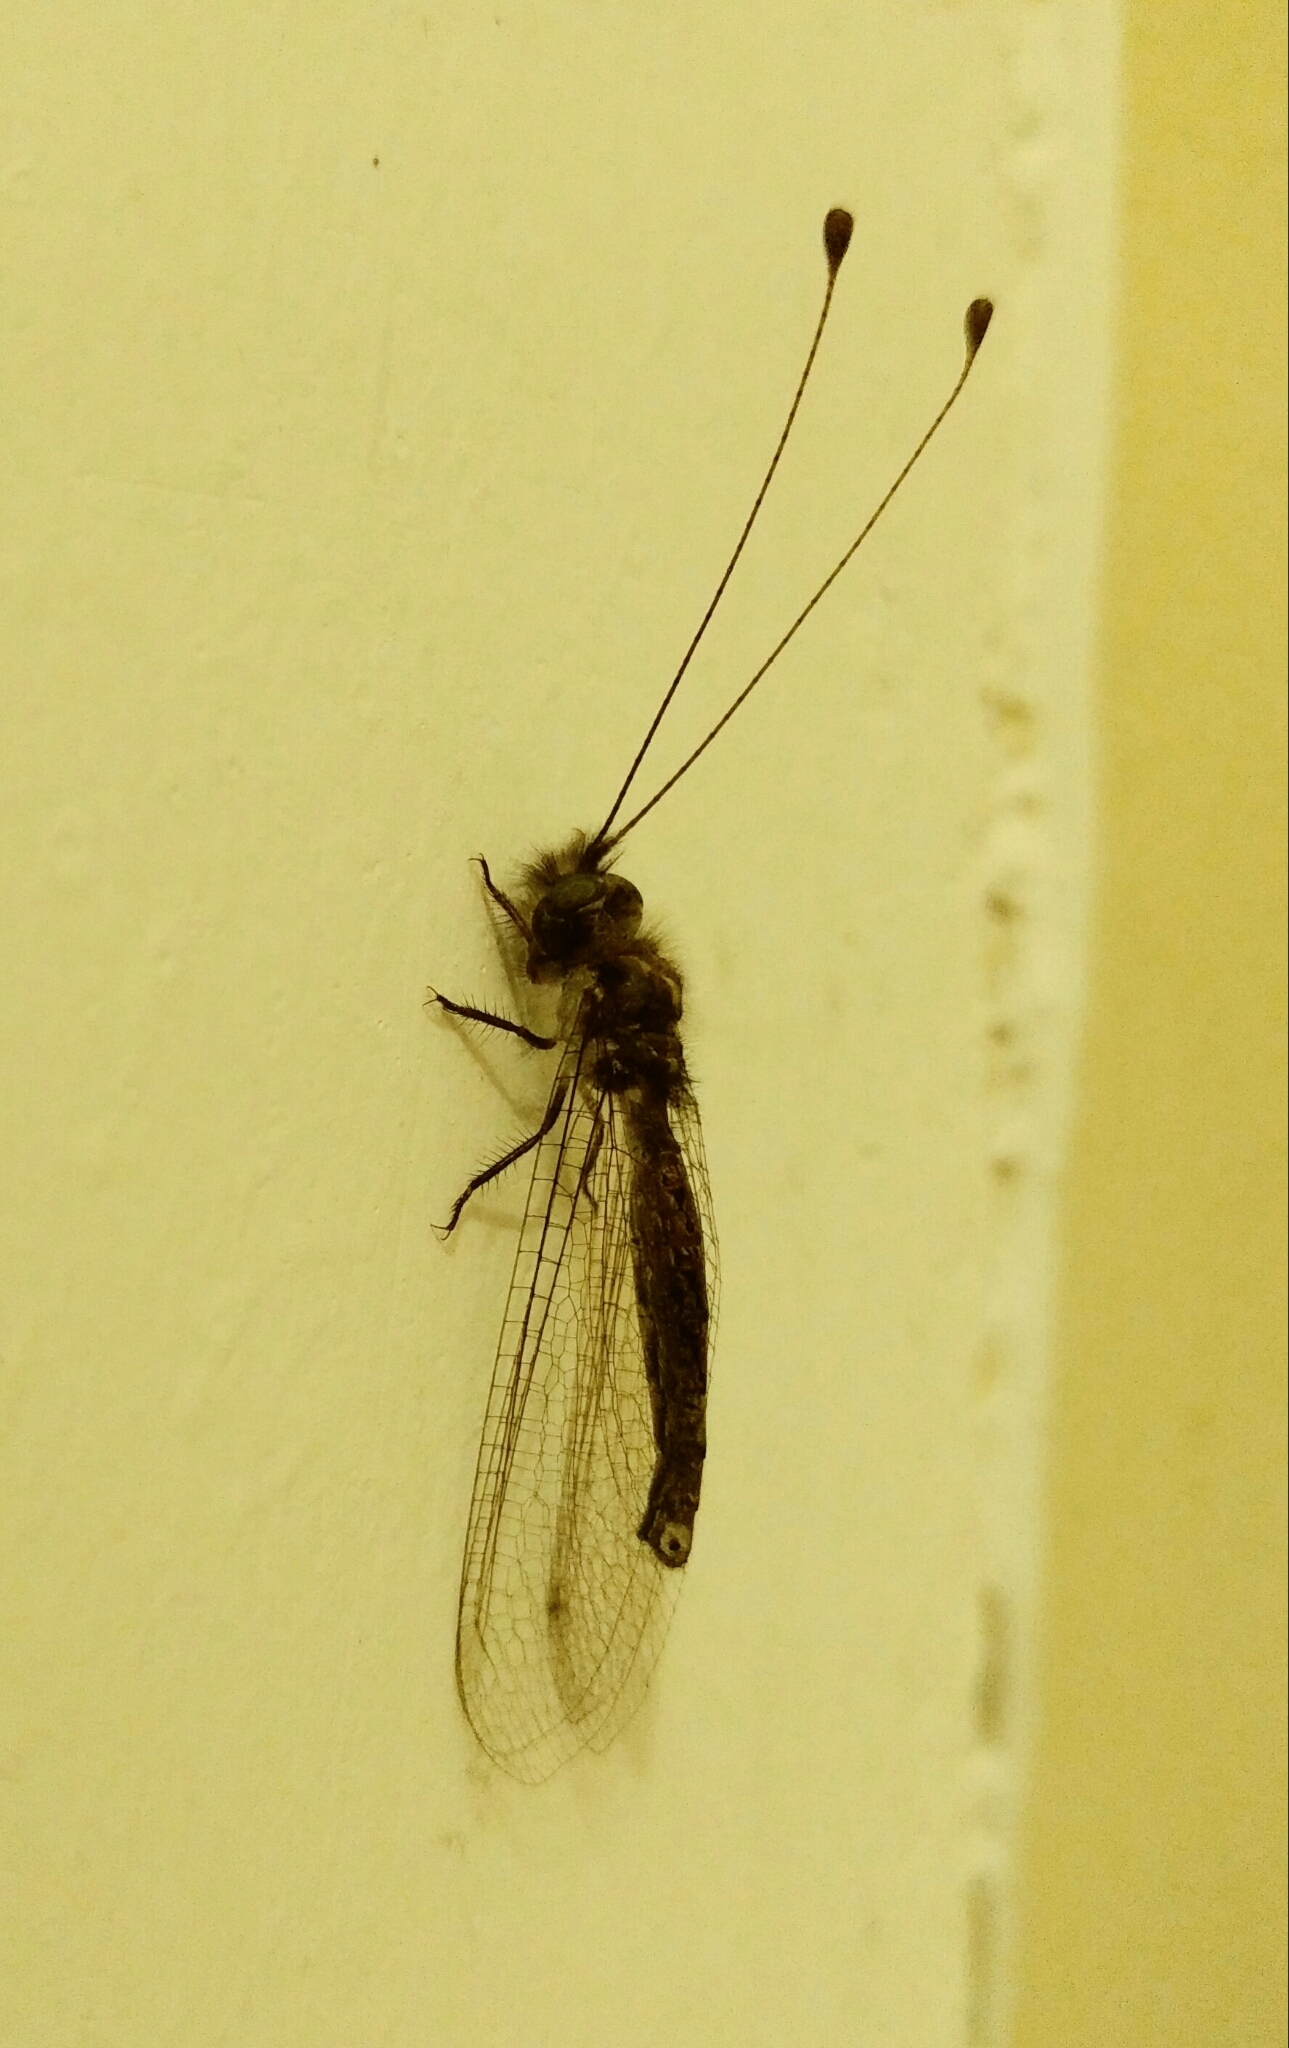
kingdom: Animalia
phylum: Arthropoda
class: Insecta
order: Neuroptera
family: Ascalaphidae
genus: Ululodes
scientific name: Ululodes quadripunctatus
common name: Four-spotted owlfly
